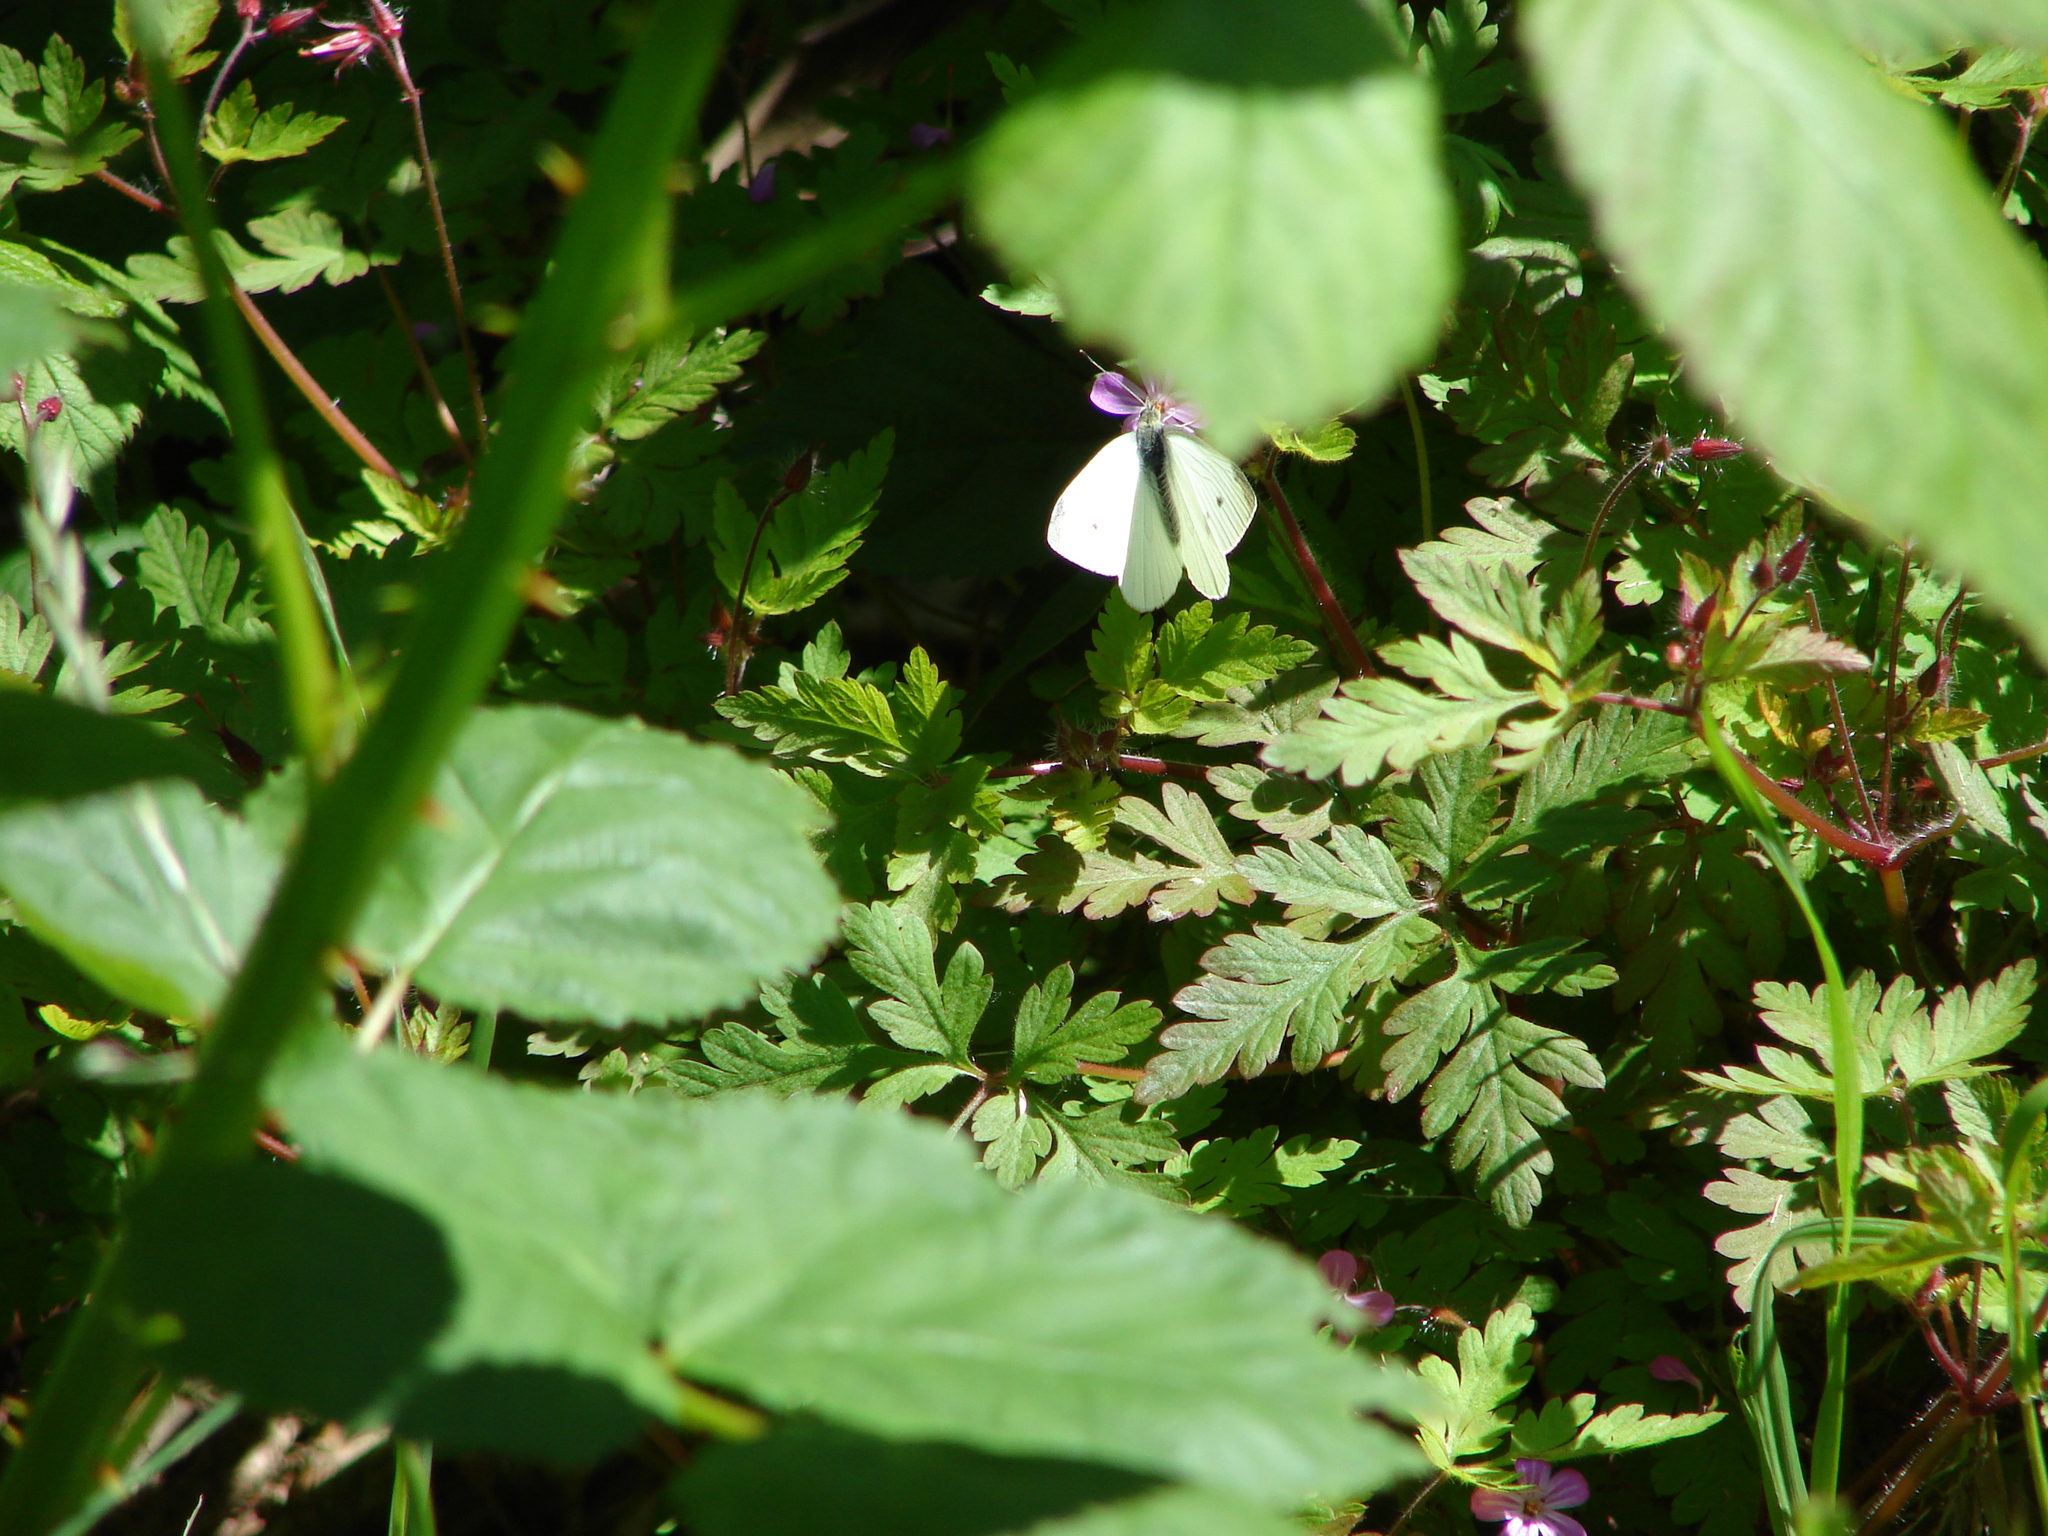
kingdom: Animalia
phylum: Arthropoda
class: Insecta
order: Lepidoptera
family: Pieridae
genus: Pieris
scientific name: Pieris rapae
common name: Small white
